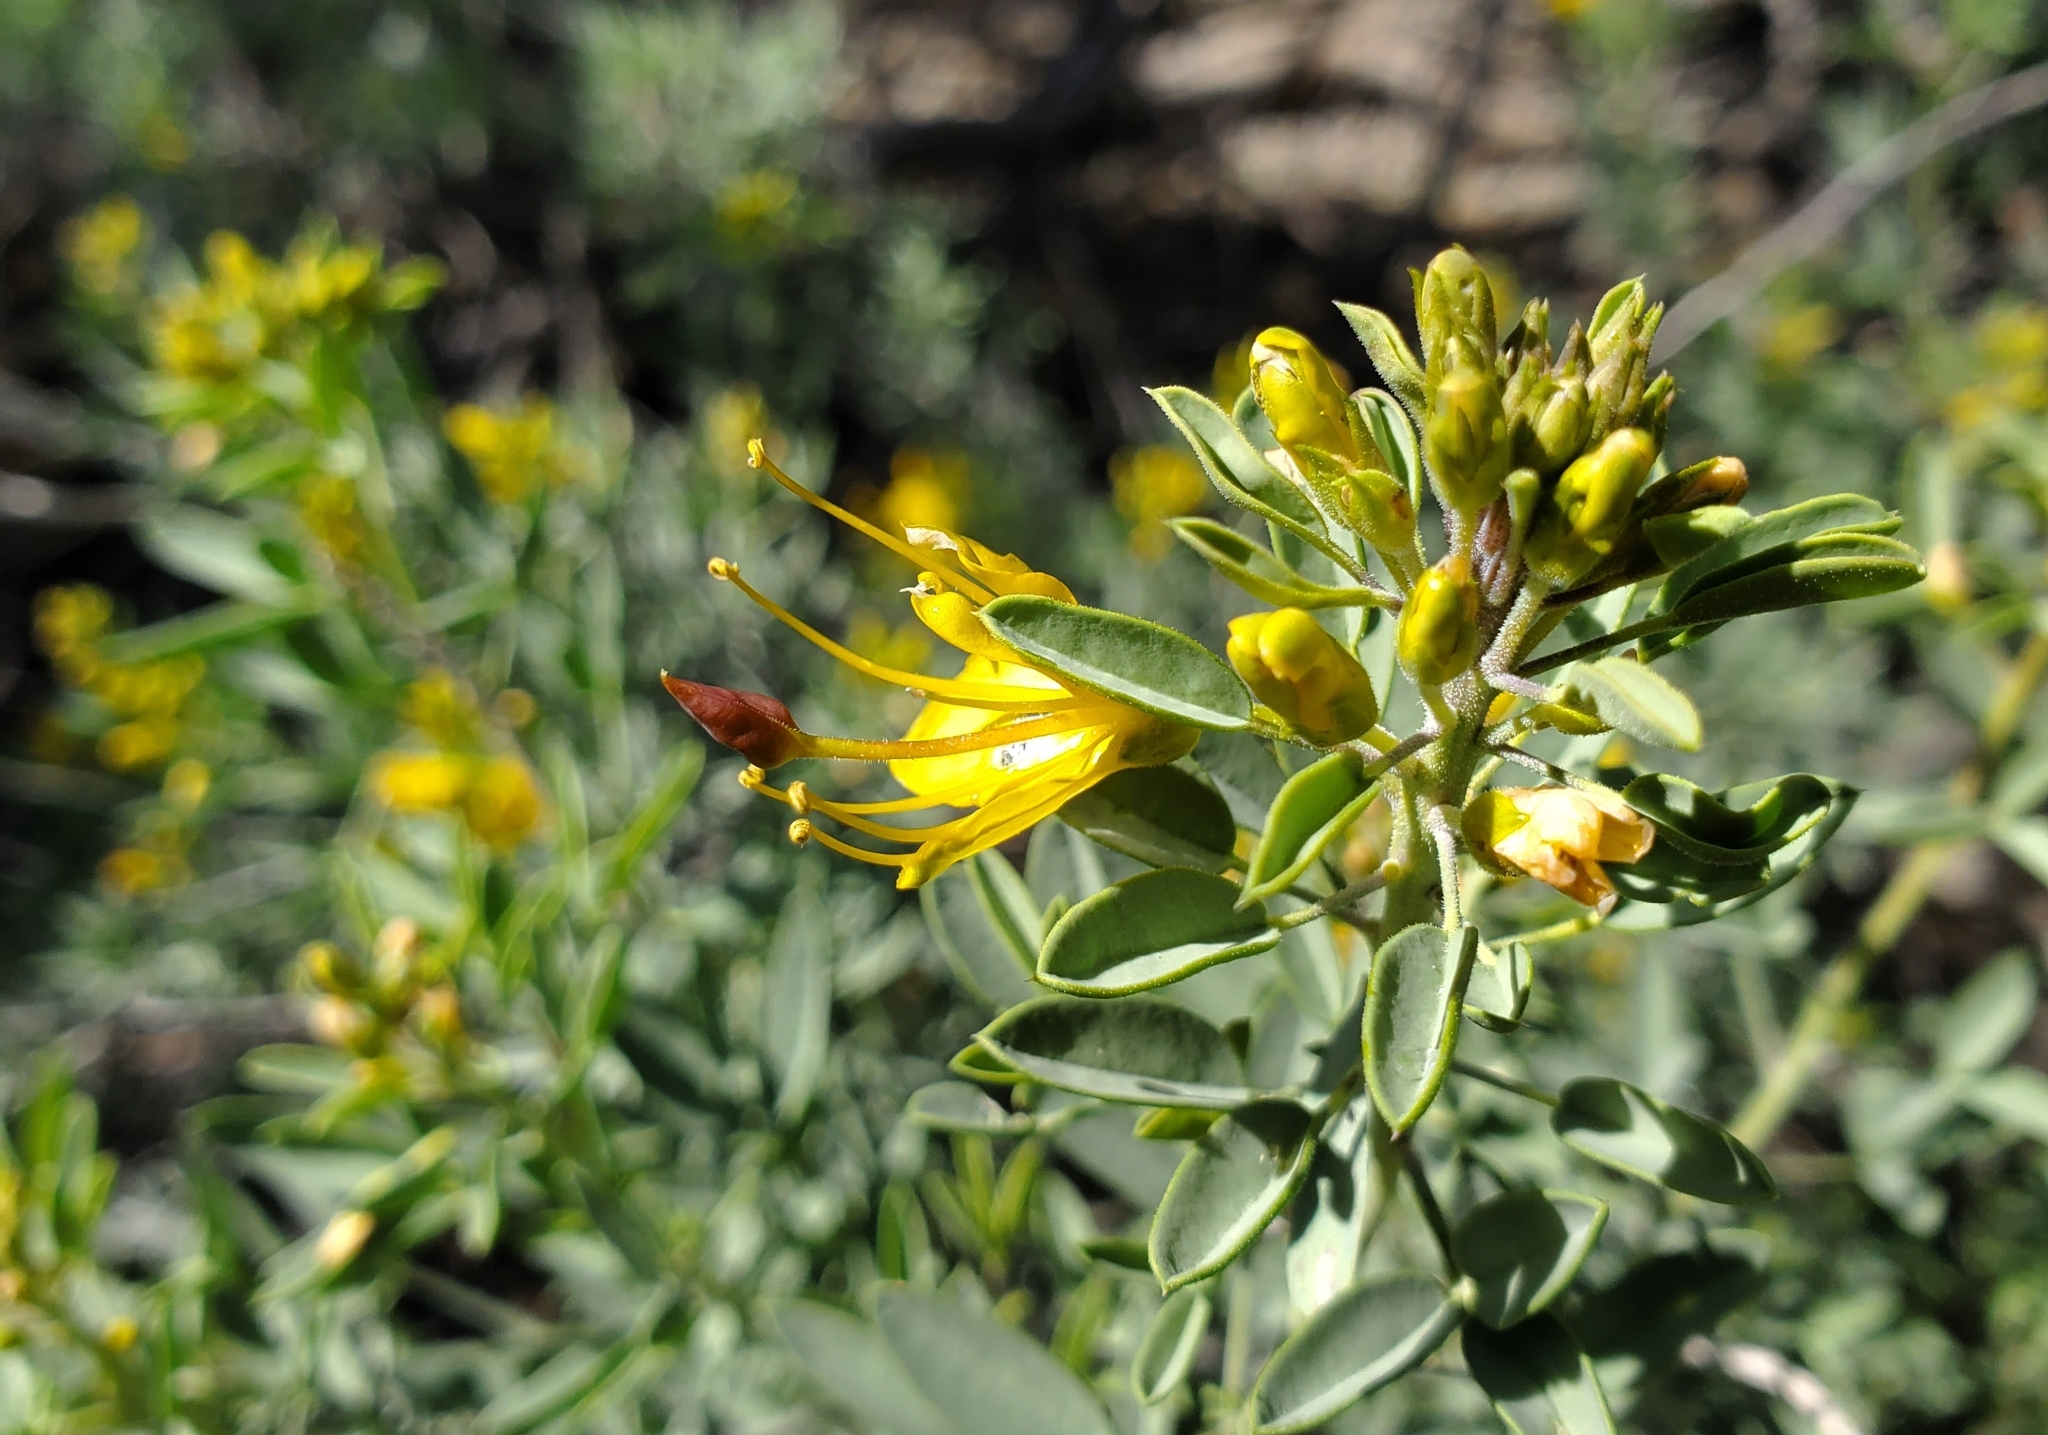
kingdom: Plantae
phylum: Tracheophyta
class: Magnoliopsida
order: Brassicales
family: Cleomaceae
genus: Cleomella
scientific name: Cleomella arborea
